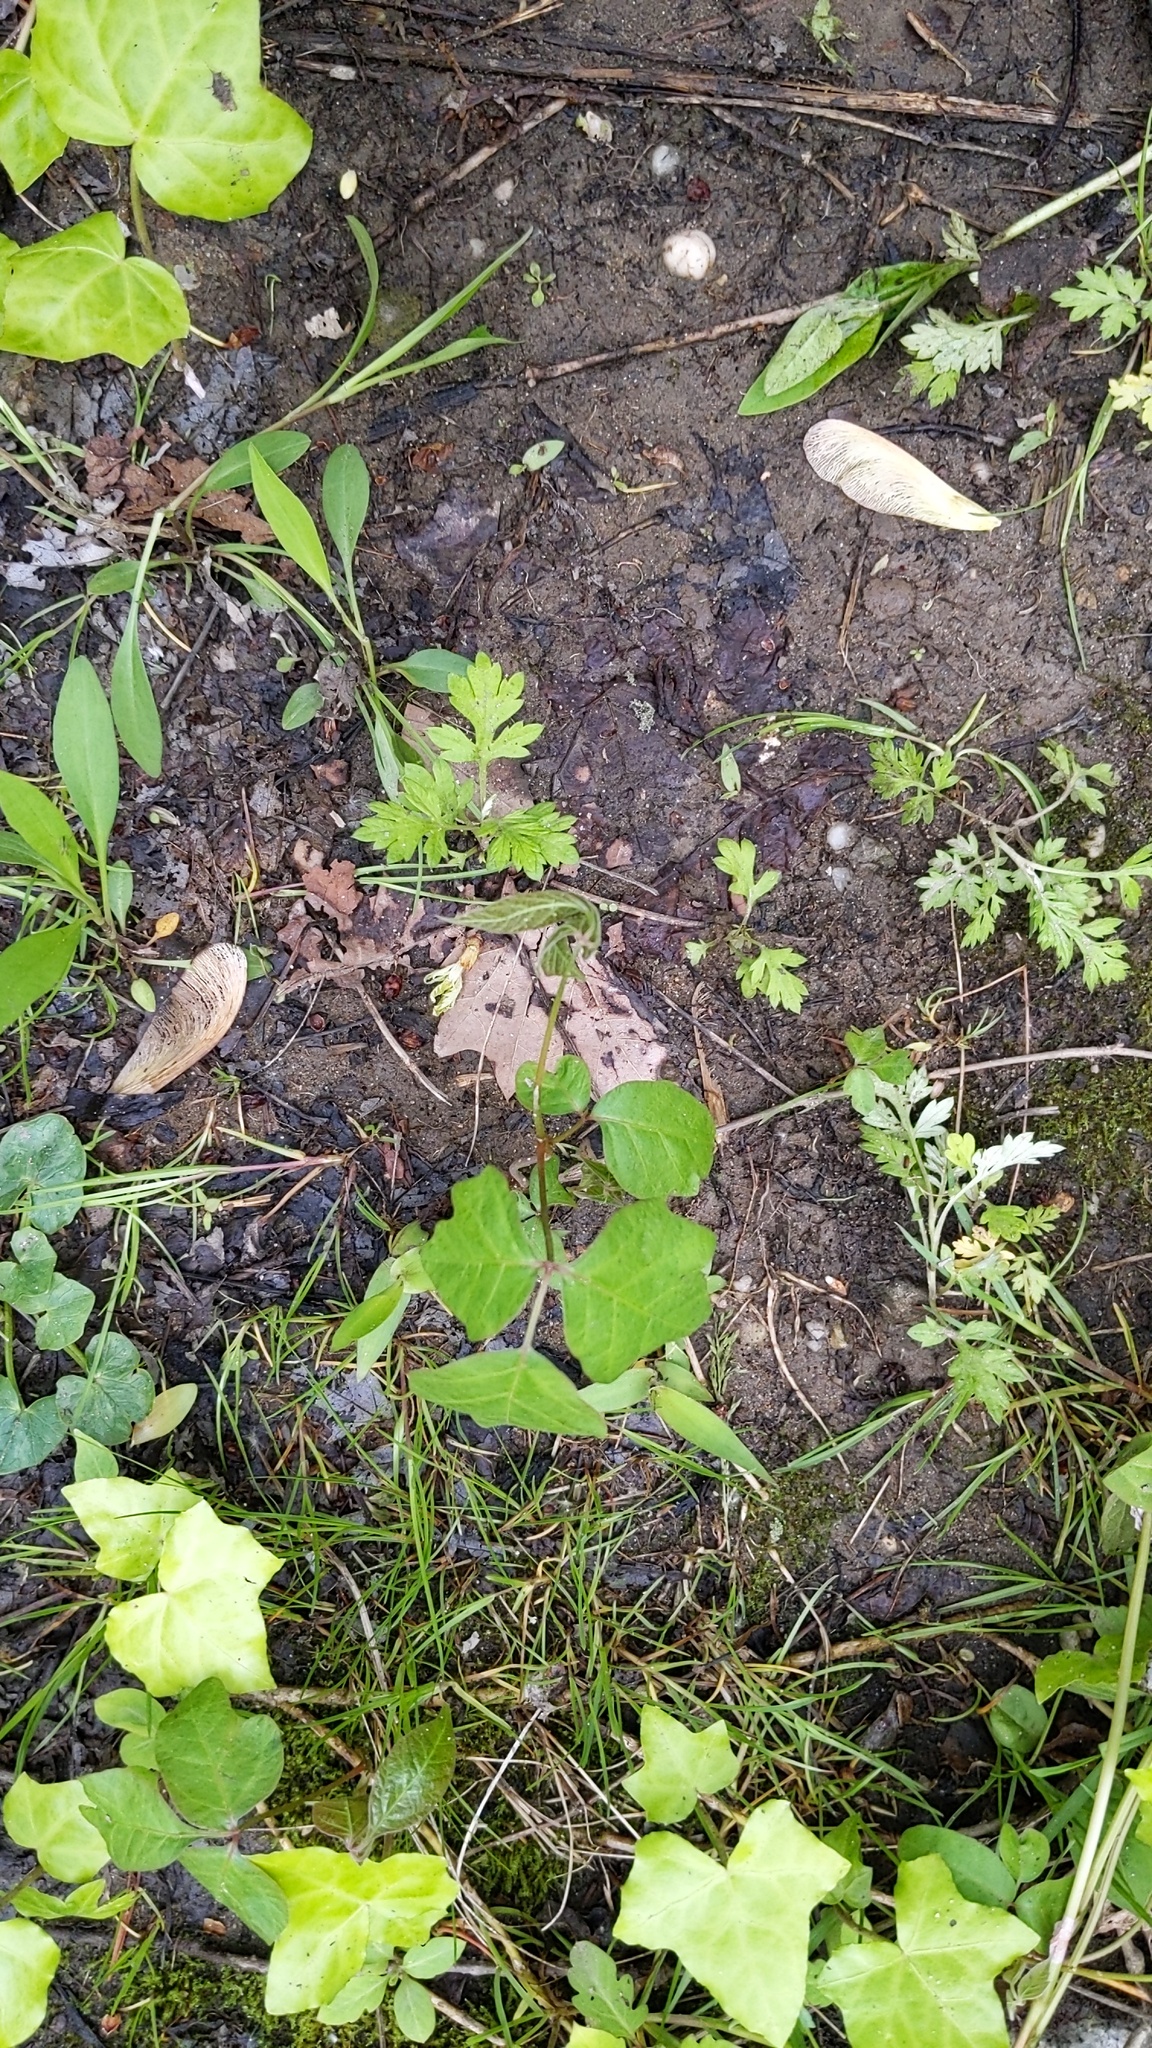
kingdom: Plantae
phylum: Tracheophyta
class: Magnoliopsida
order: Apiales
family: Araliaceae
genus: Hedera
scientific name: Hedera helix
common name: Ivy
